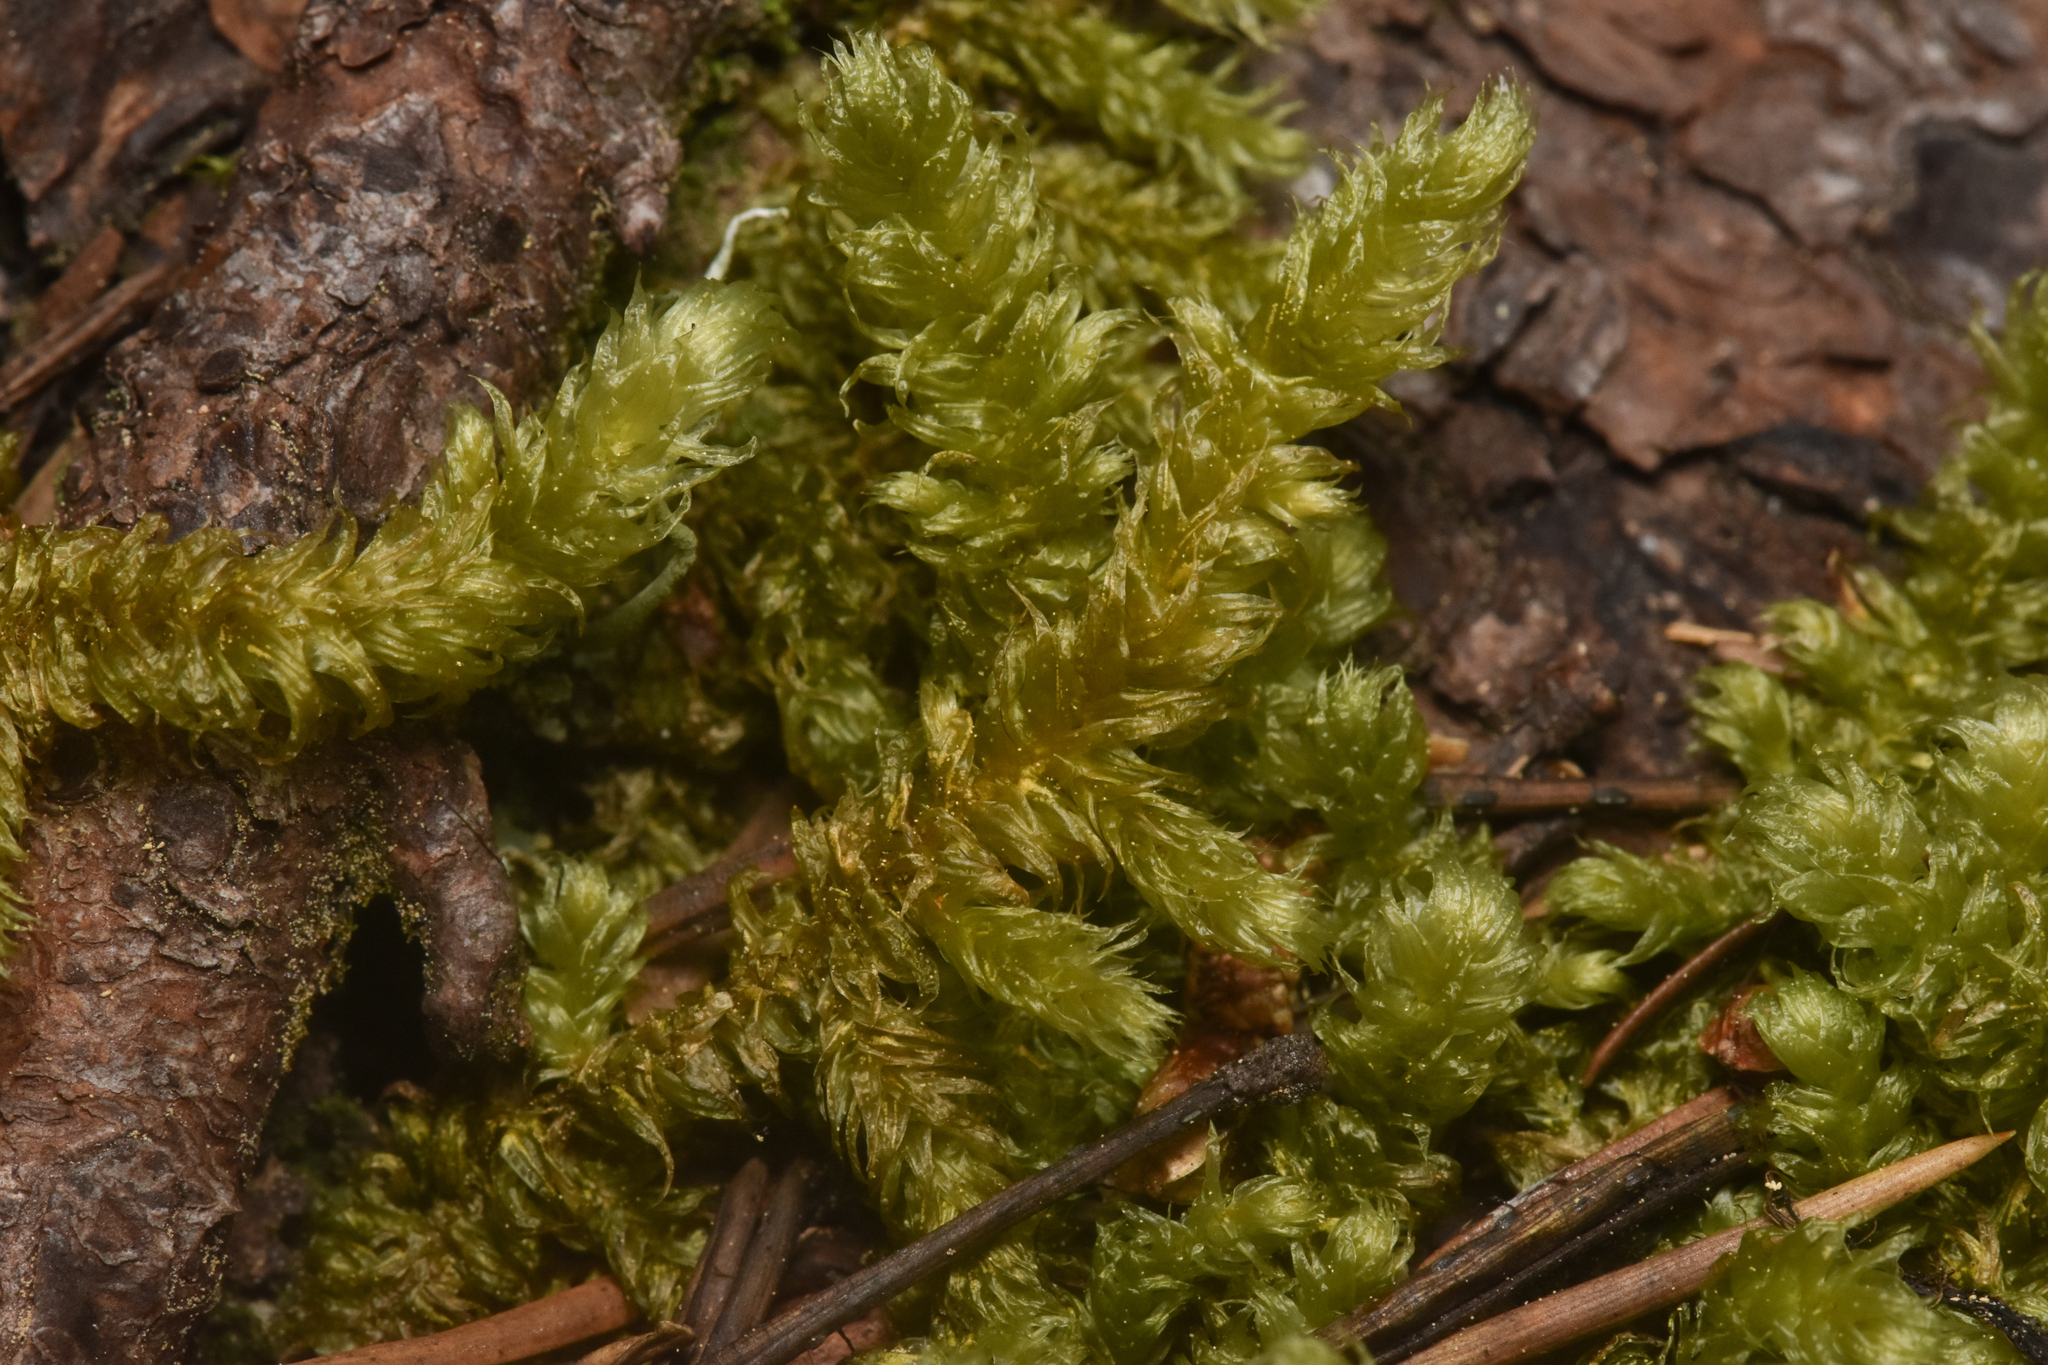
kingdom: Plantae
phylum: Bryophyta
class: Bryopsida
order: Hypnales
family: Hylocomiaceae
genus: Rhytidiopsis
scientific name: Rhytidiopsis robusta
